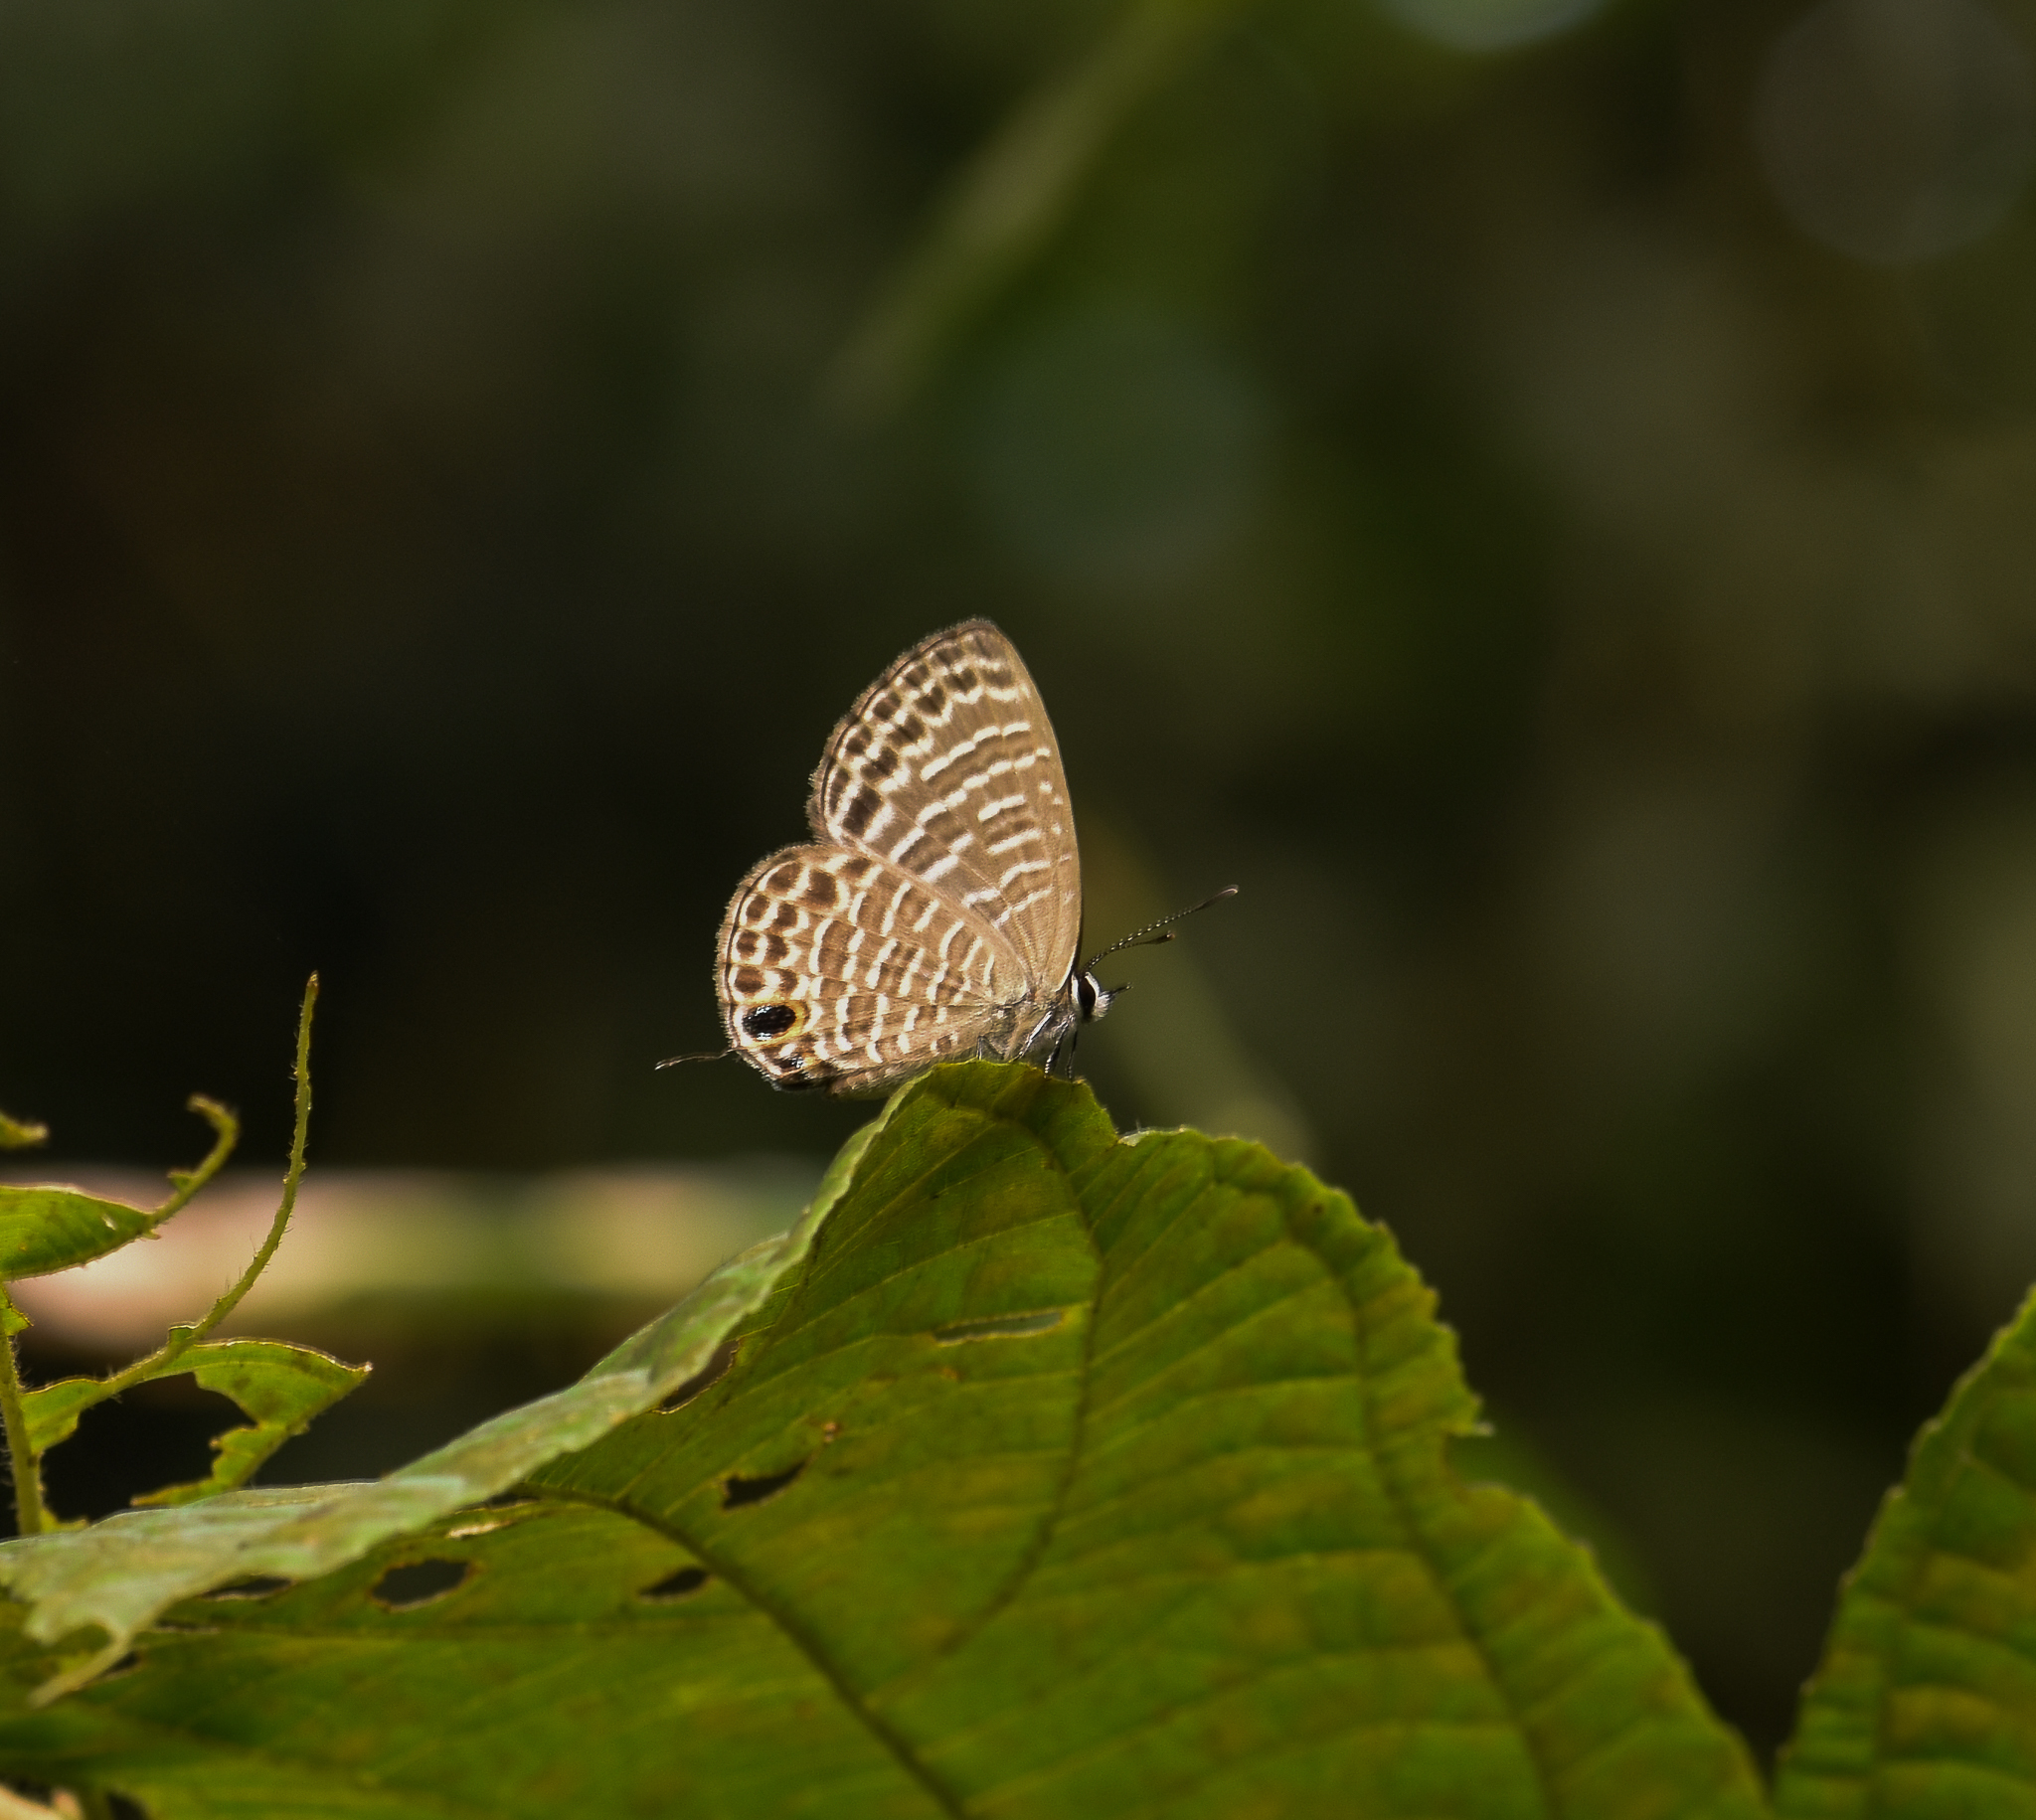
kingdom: Animalia
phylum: Arthropoda
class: Insecta
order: Lepidoptera
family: Lycaenidae
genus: Nacaduba
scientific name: Nacaduba kurava
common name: Transparent 6-line blue
